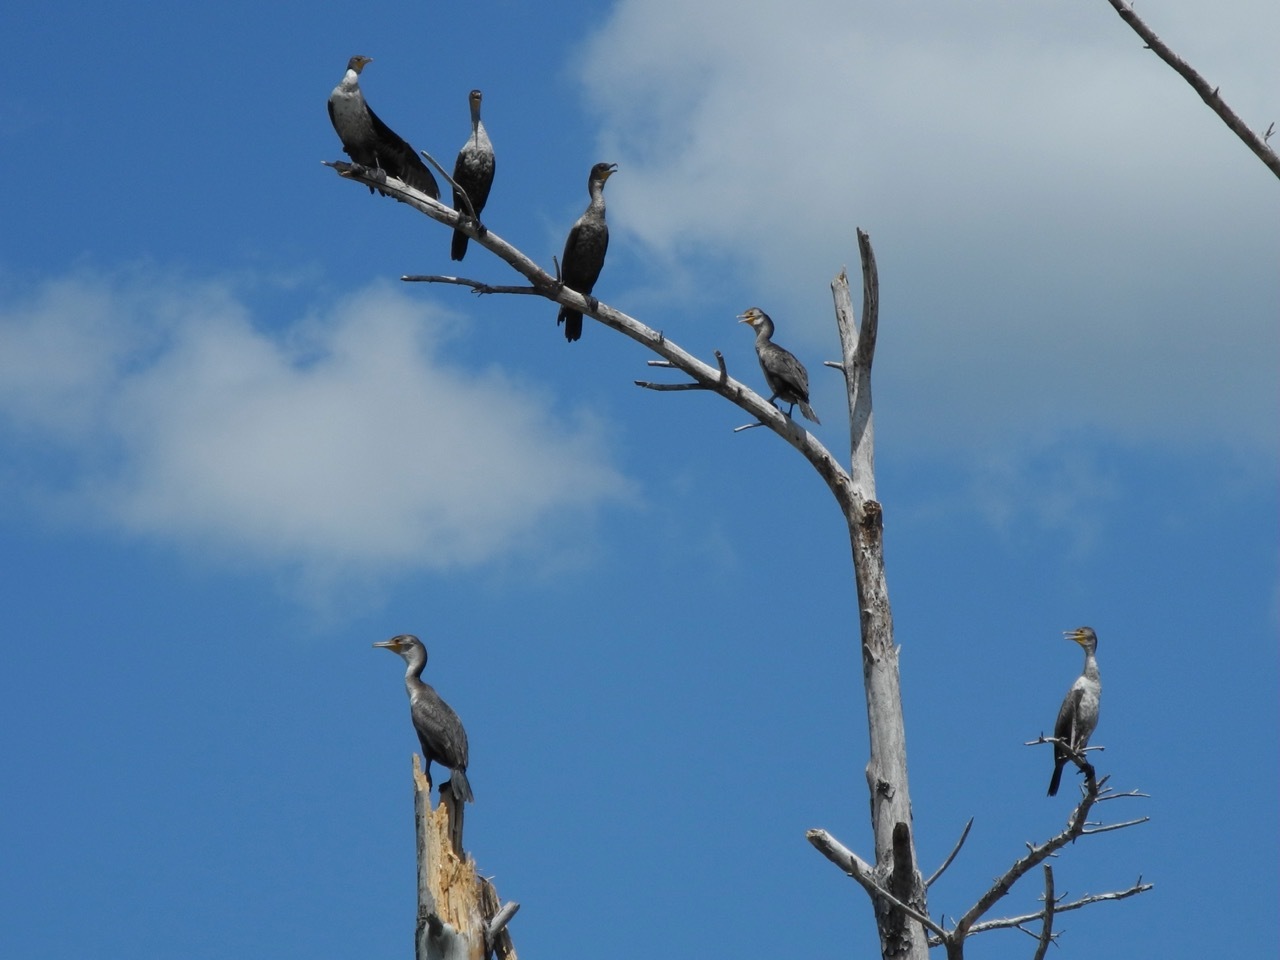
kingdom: Animalia
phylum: Chordata
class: Aves
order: Suliformes
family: Phalacrocoracidae
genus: Phalacrocorax
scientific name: Phalacrocorax auritus
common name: Double-crested cormorant
